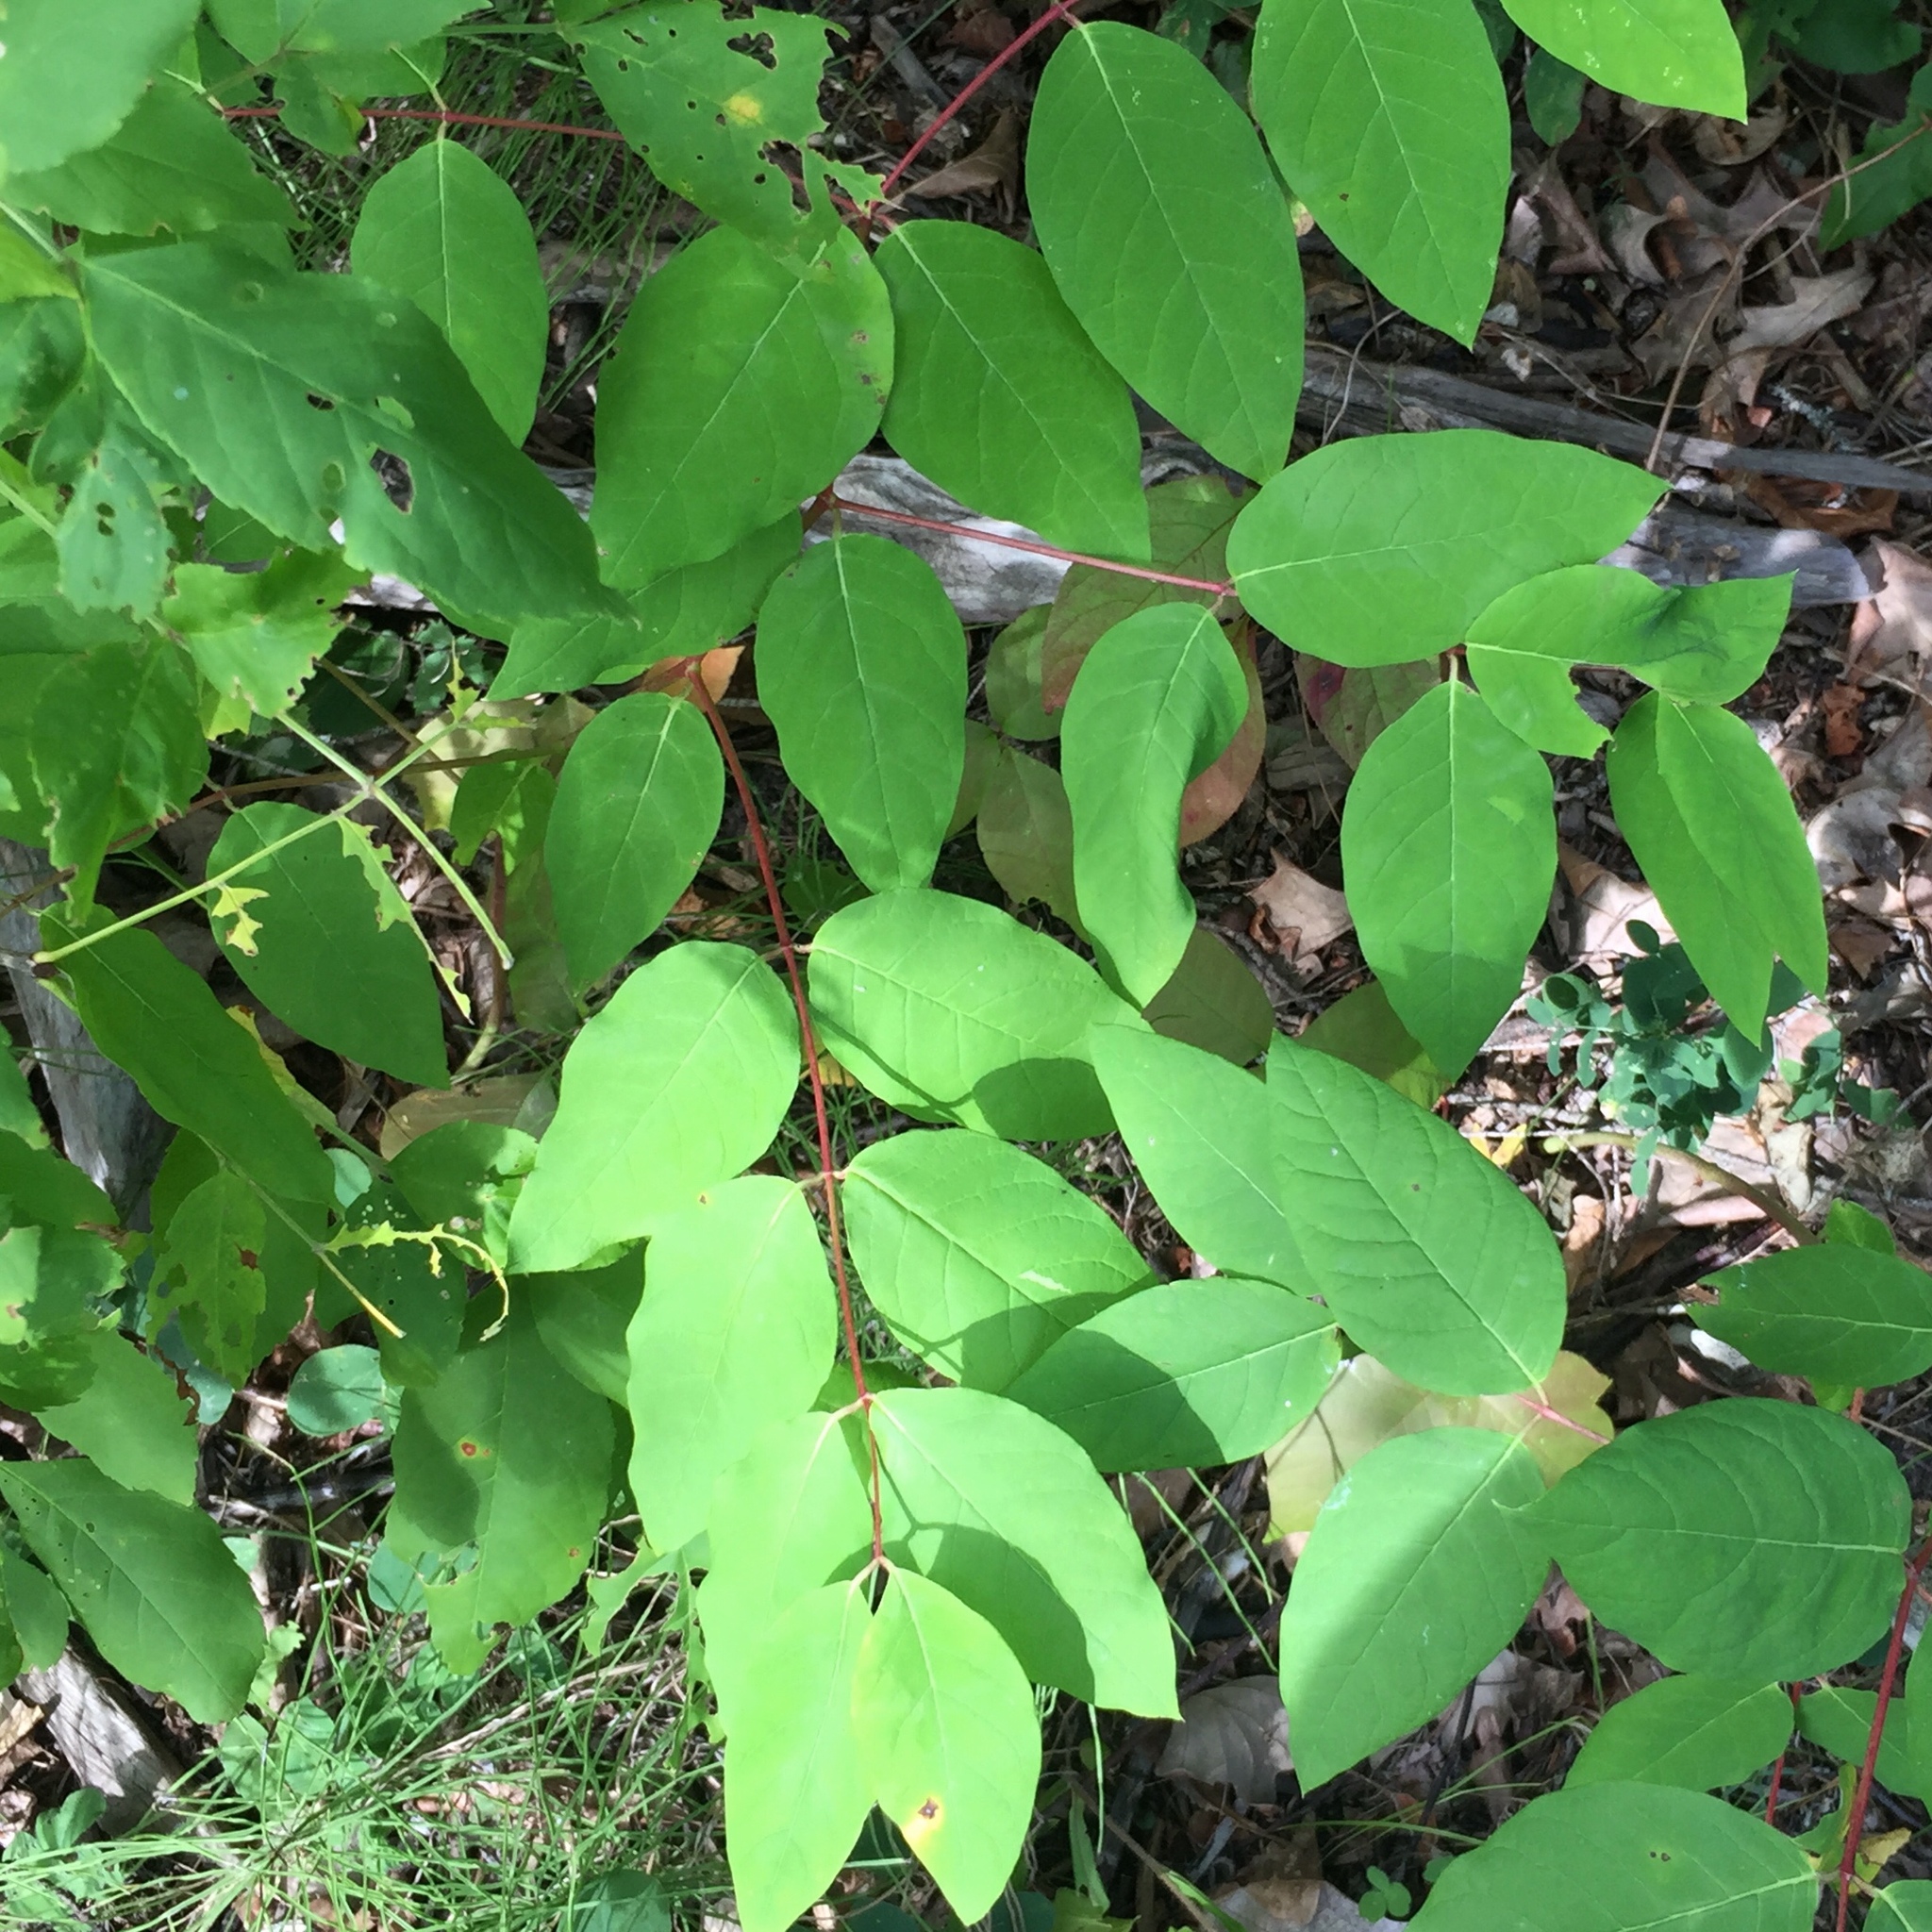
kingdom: Plantae
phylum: Tracheophyta
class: Magnoliopsida
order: Gentianales
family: Apocynaceae
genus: Apocynum
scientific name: Apocynum androsaemifolium
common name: Spreading dogbane
